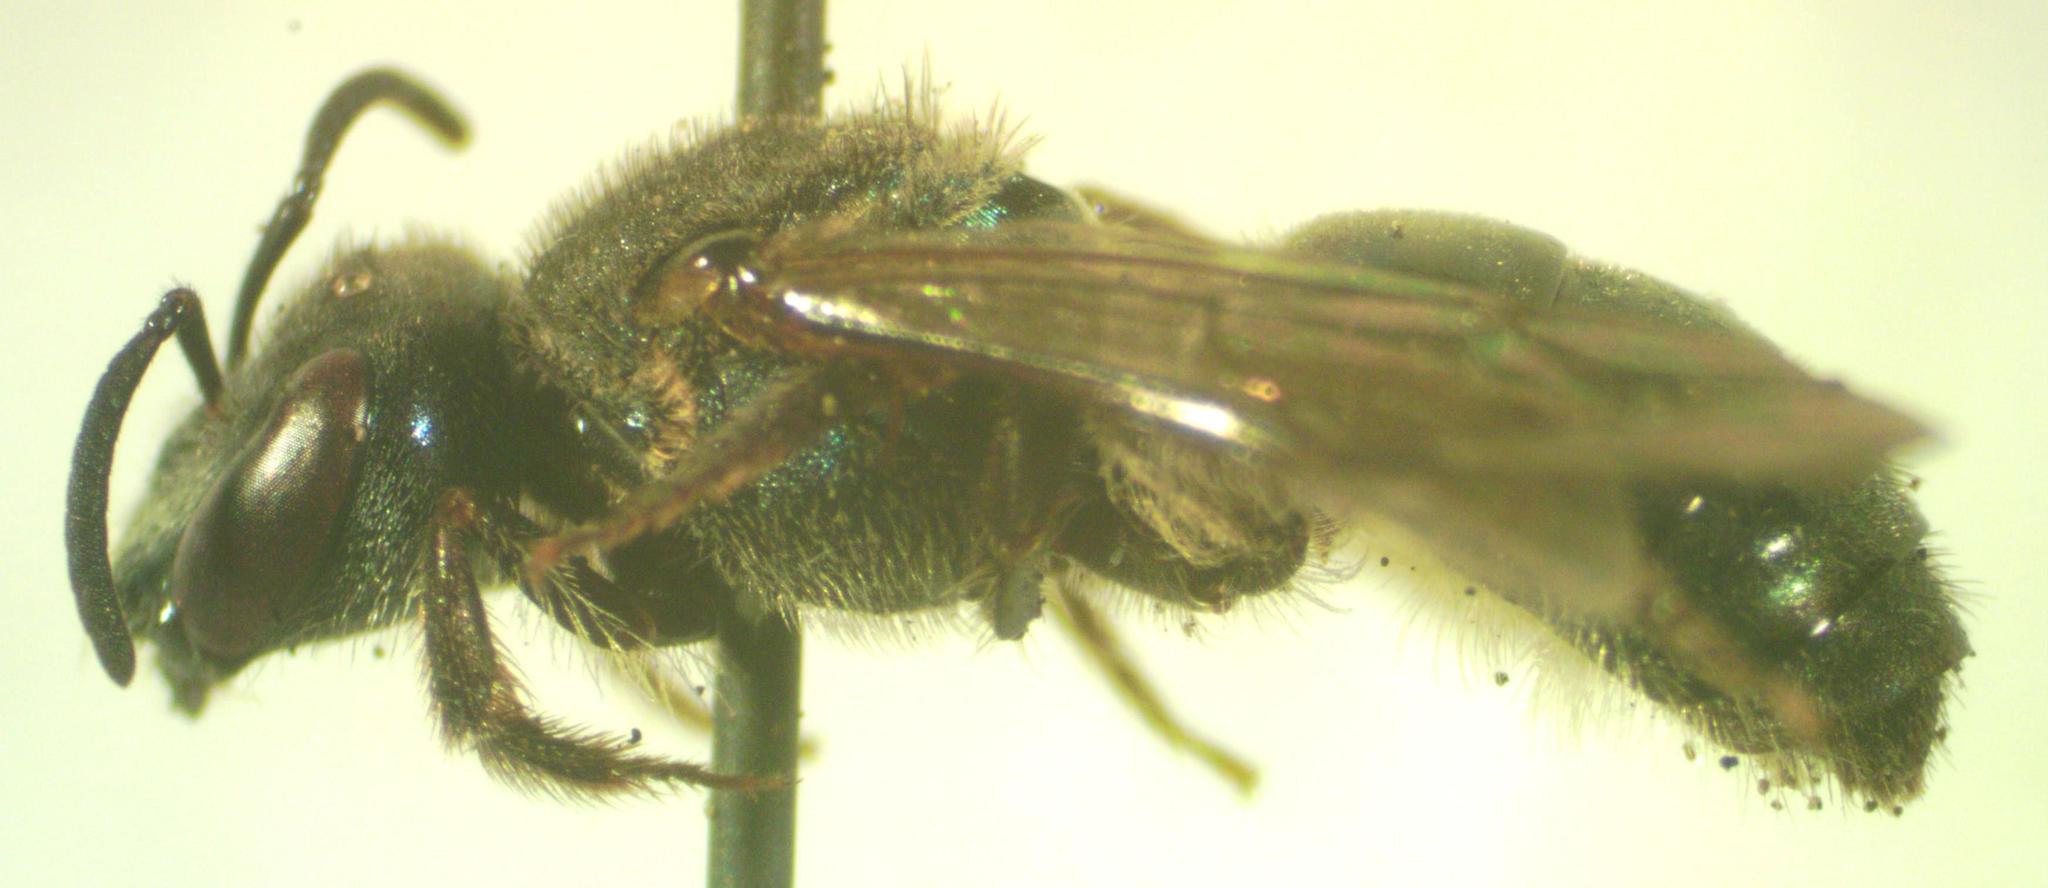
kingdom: Animalia
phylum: Arthropoda
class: Insecta
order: Hymenoptera
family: Halictidae
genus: Augochlora
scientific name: Augochlora nigrocyanea
